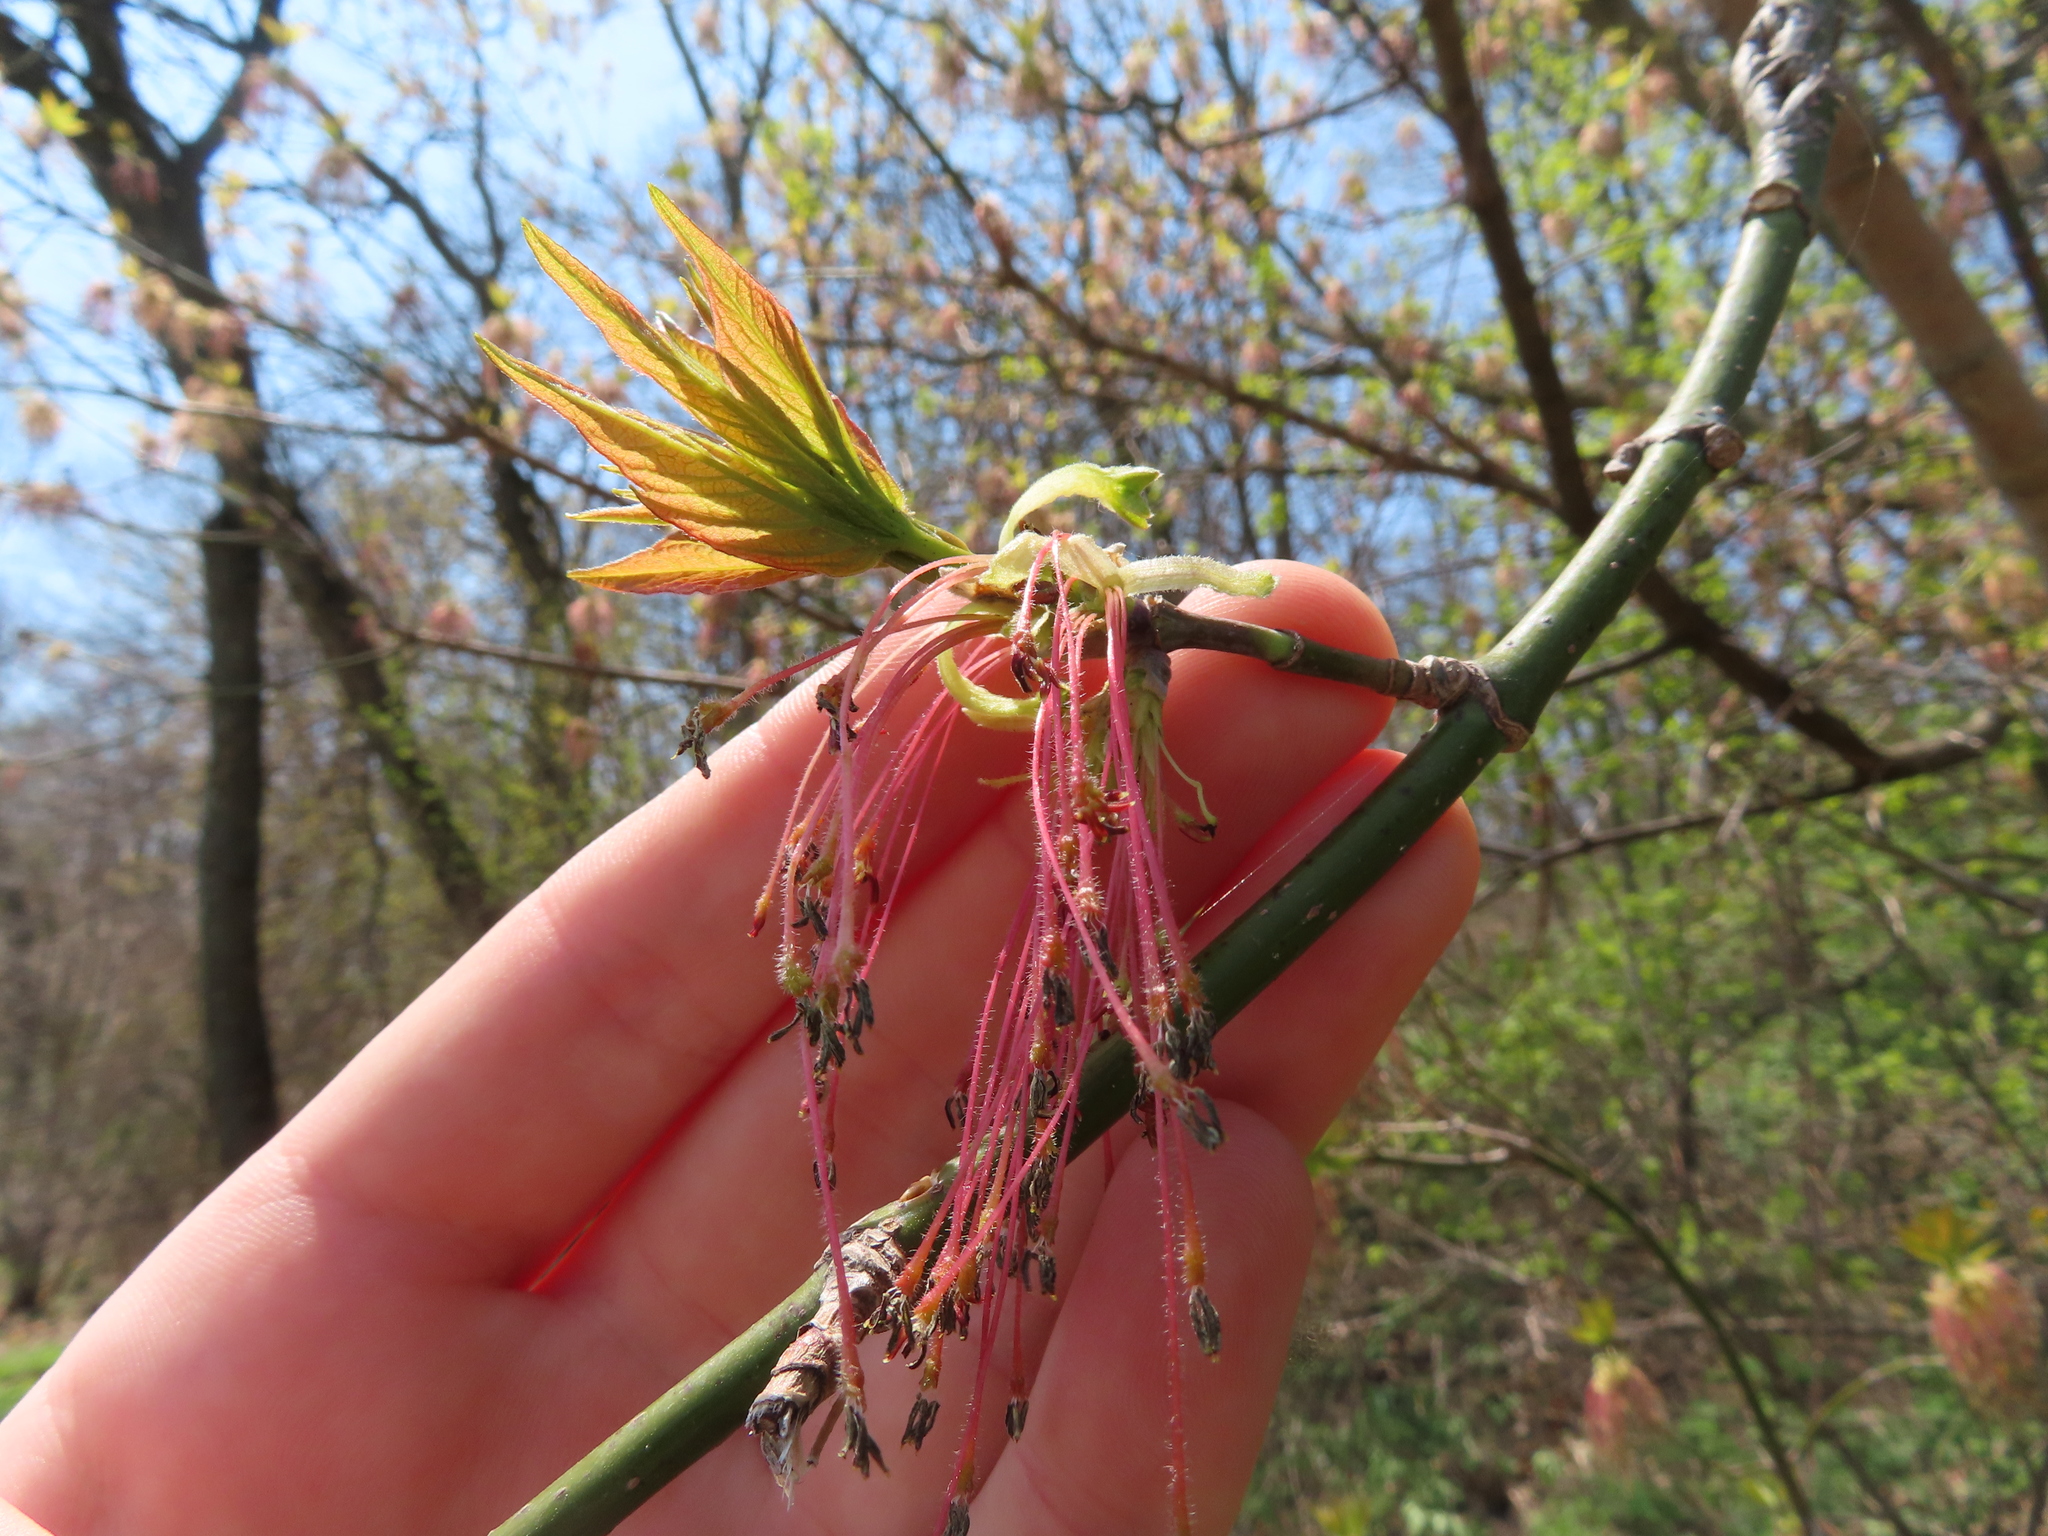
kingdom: Plantae
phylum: Tracheophyta
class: Magnoliopsida
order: Sapindales
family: Sapindaceae
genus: Acer
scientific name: Acer negundo
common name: Ashleaf maple
